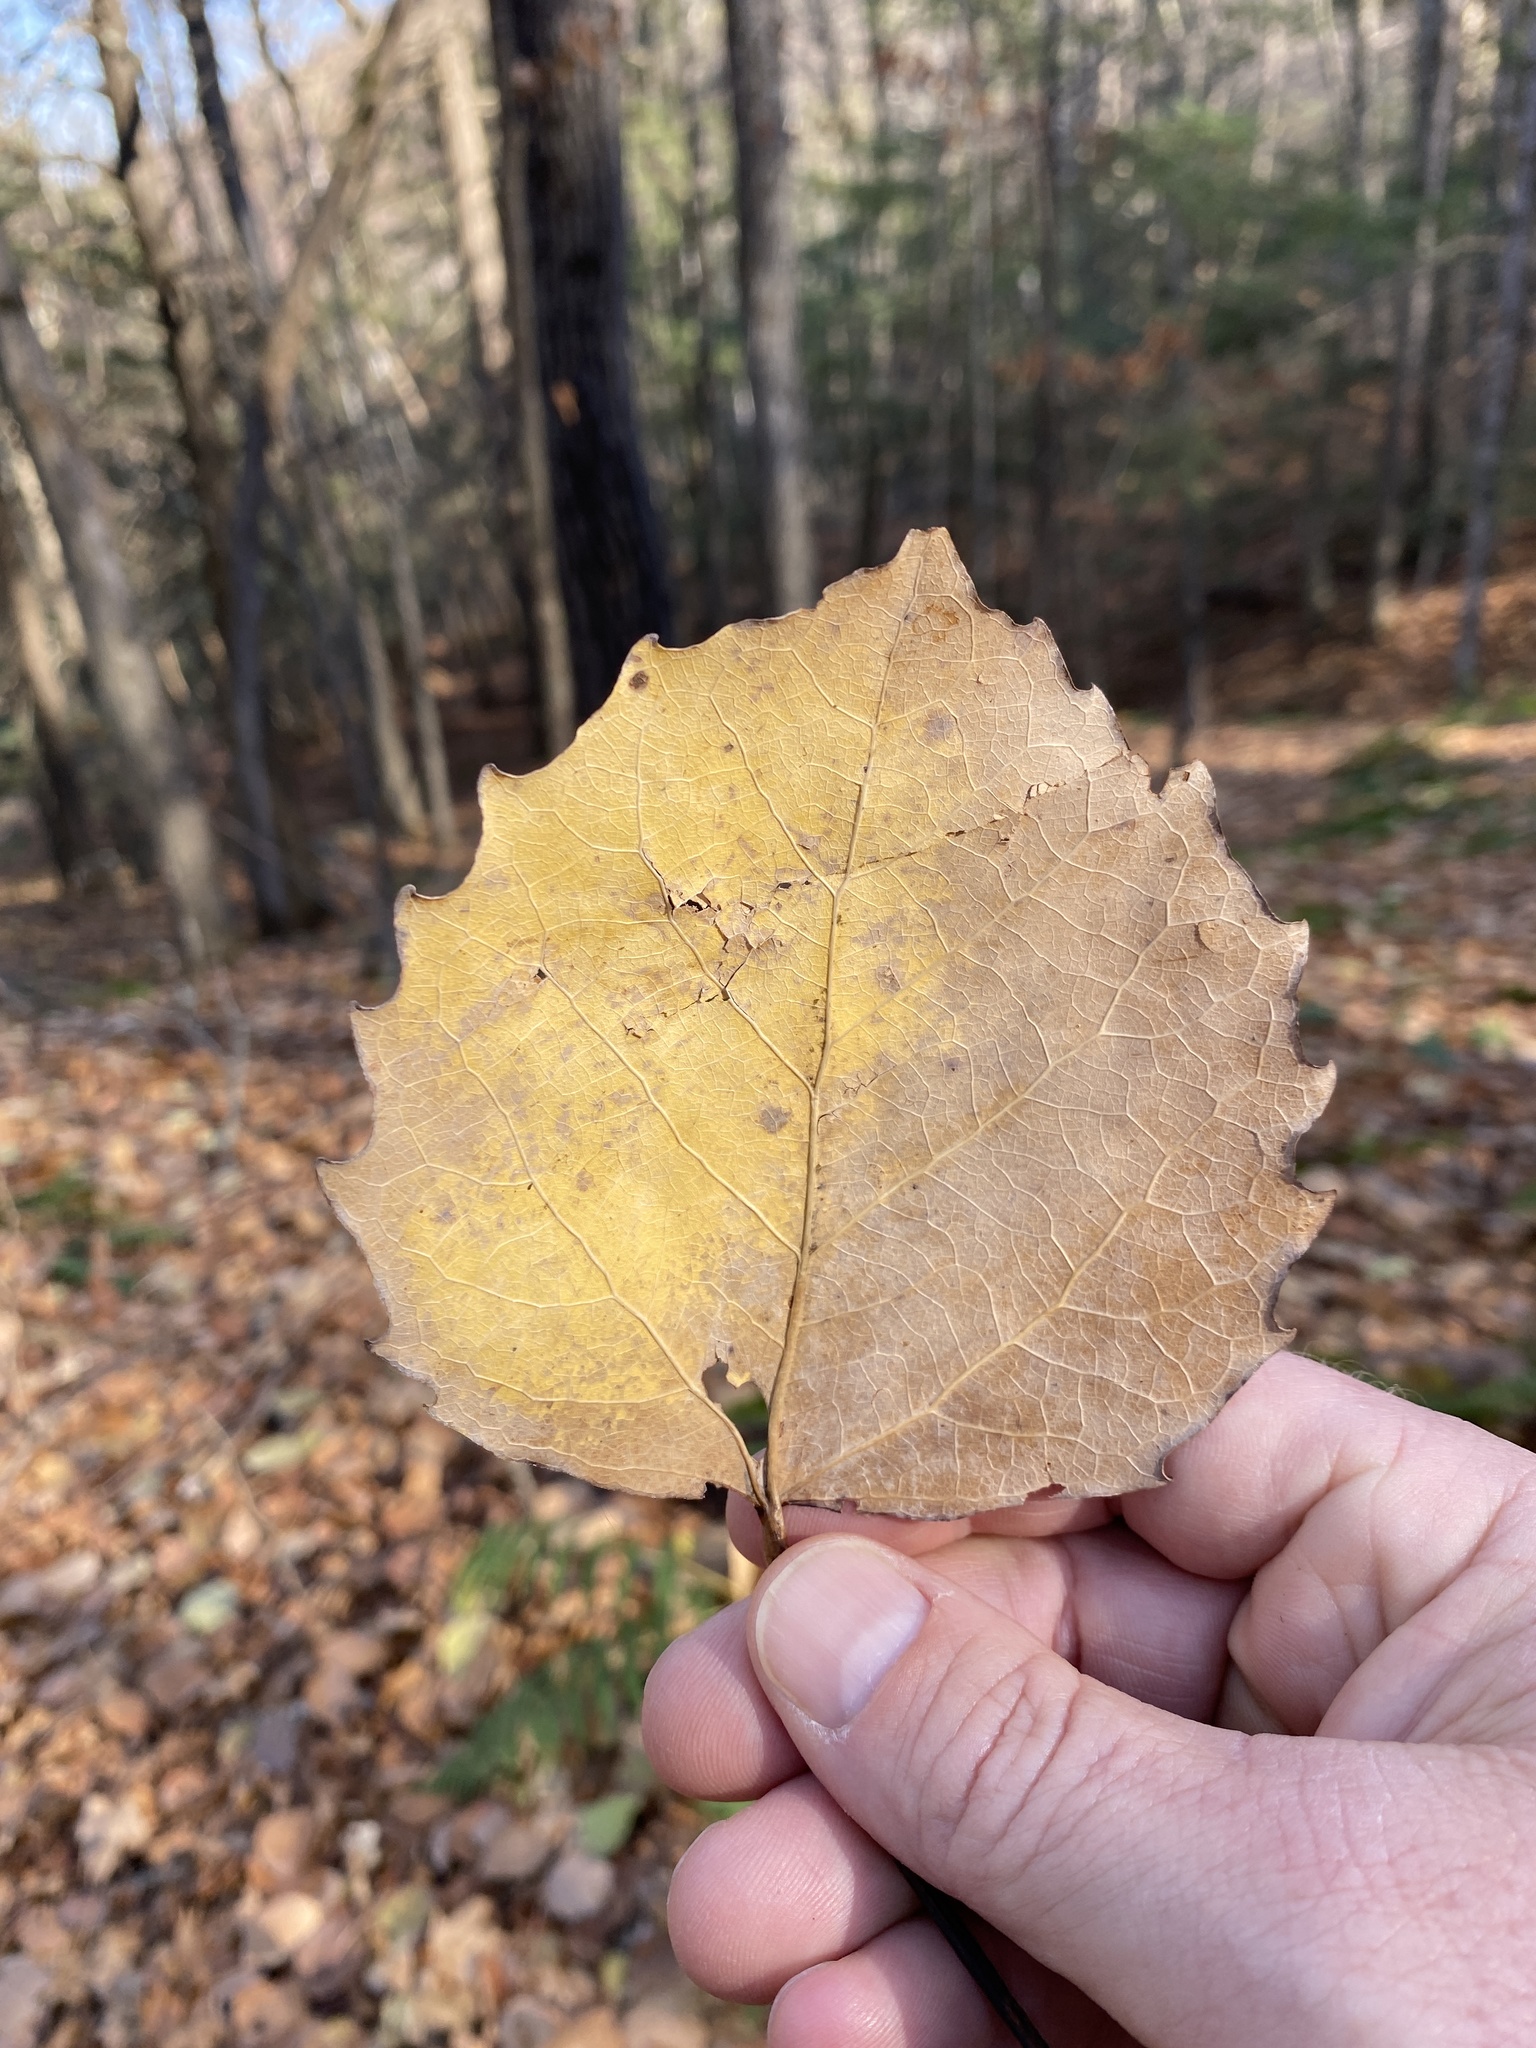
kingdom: Plantae
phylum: Tracheophyta
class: Magnoliopsida
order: Malpighiales
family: Salicaceae
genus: Populus
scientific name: Populus grandidentata
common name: Bigtooth aspen
